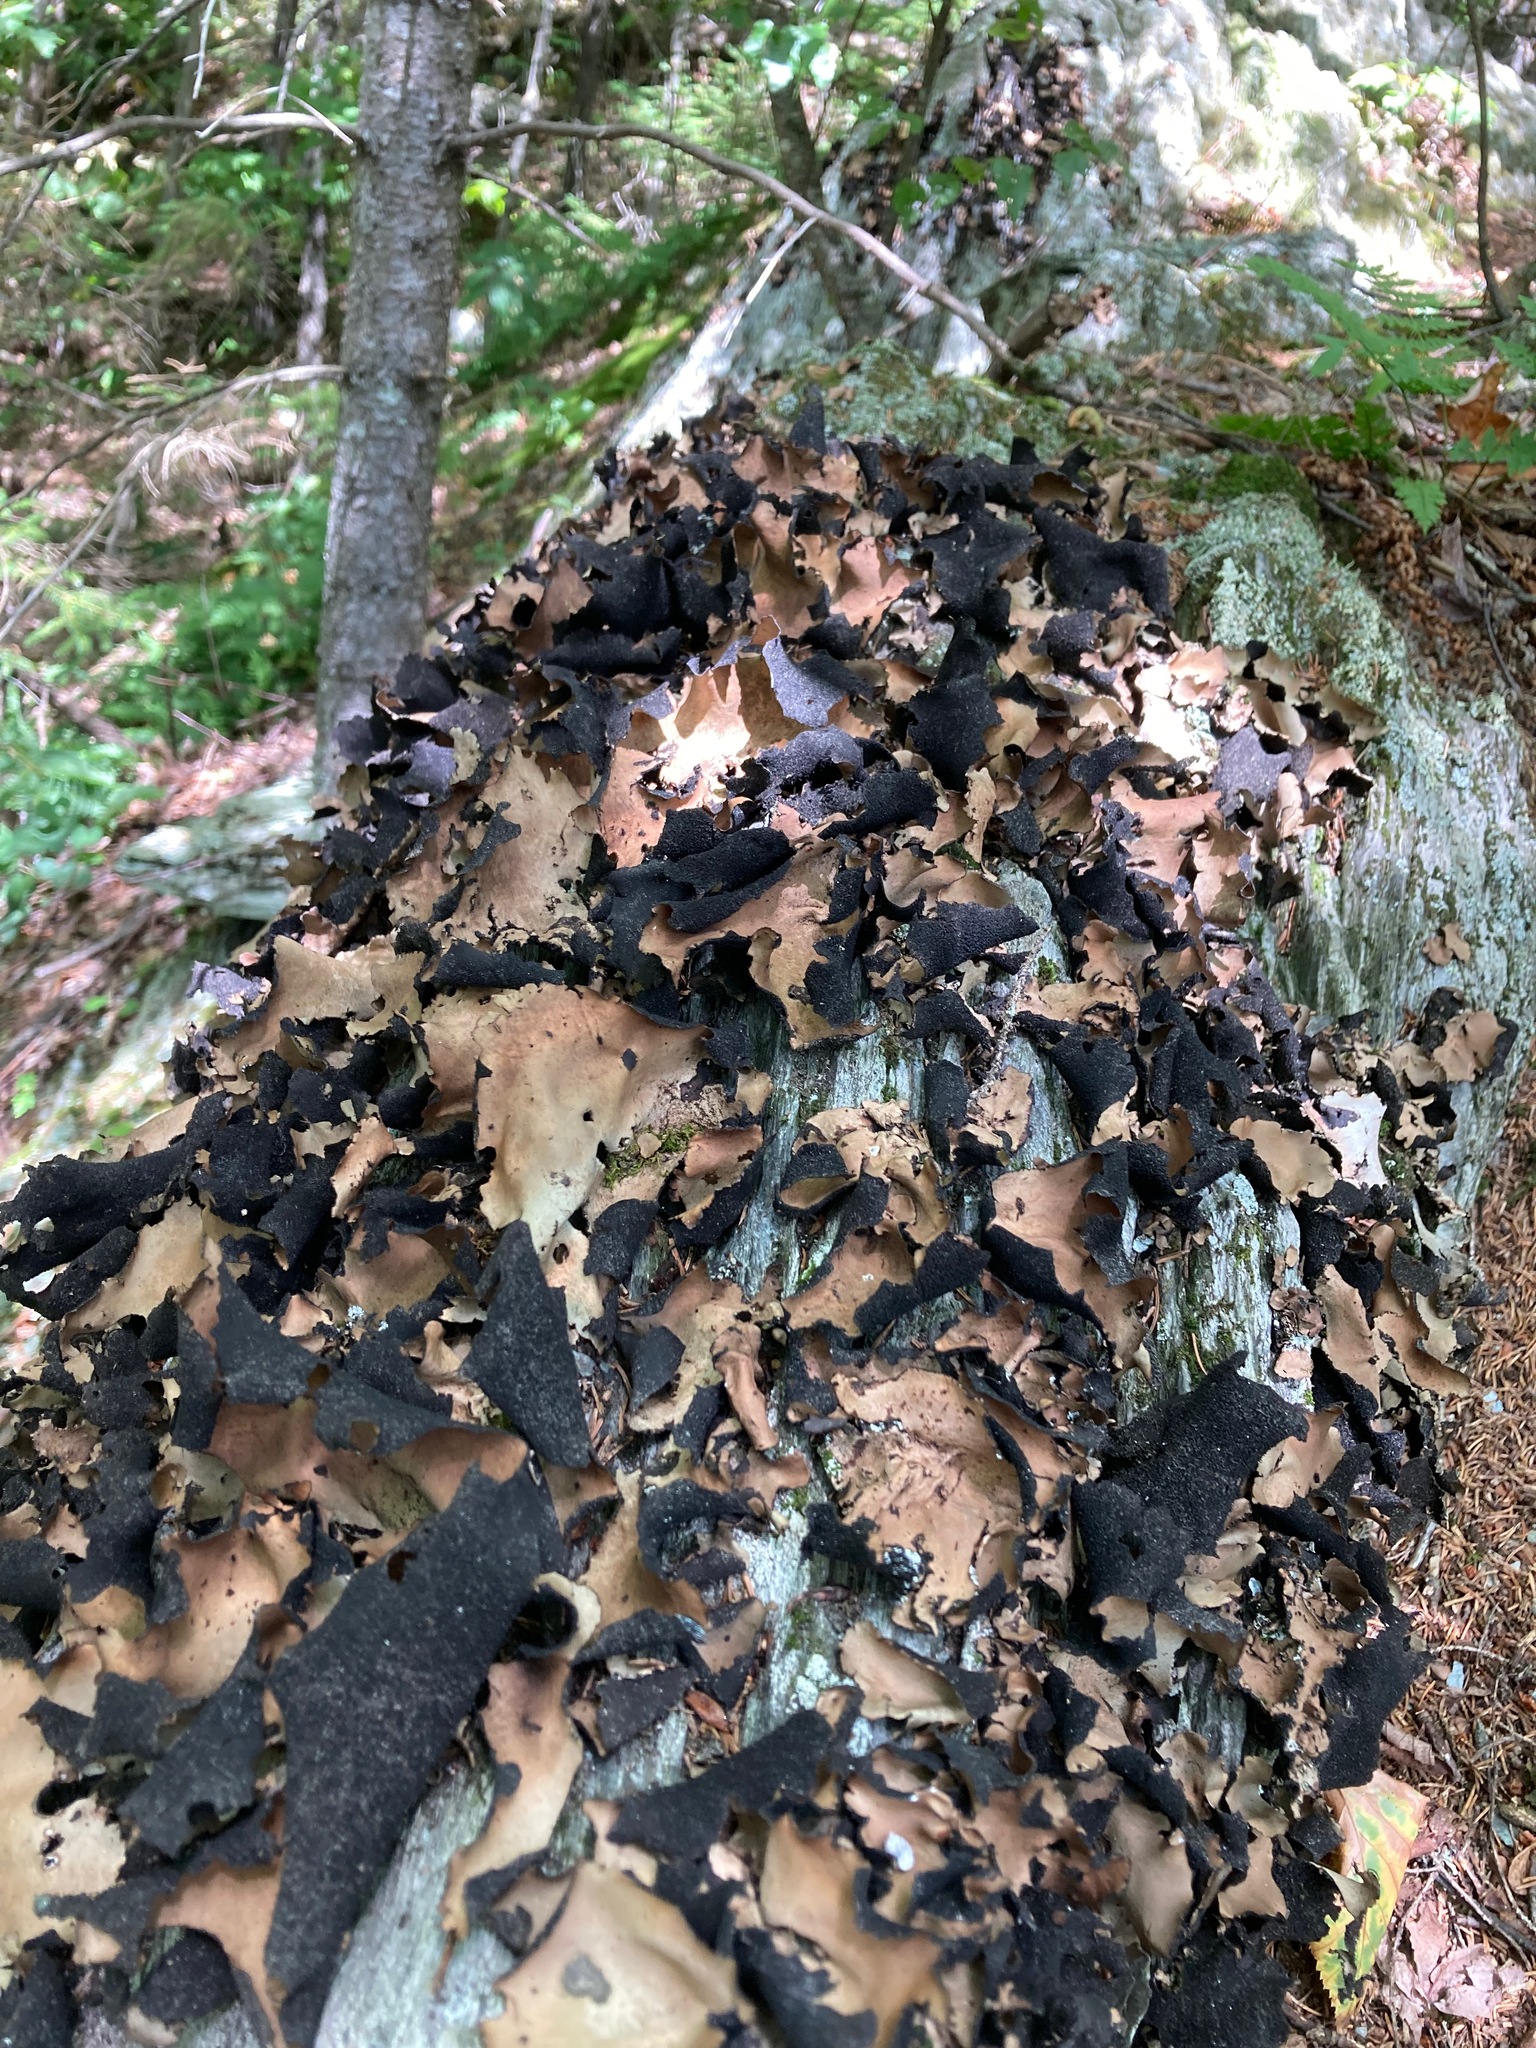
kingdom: Fungi
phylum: Ascomycota
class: Lecanoromycetes
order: Umbilicariales
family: Umbilicariaceae
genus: Umbilicaria
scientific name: Umbilicaria mammulata
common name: Smooth rock tripe
